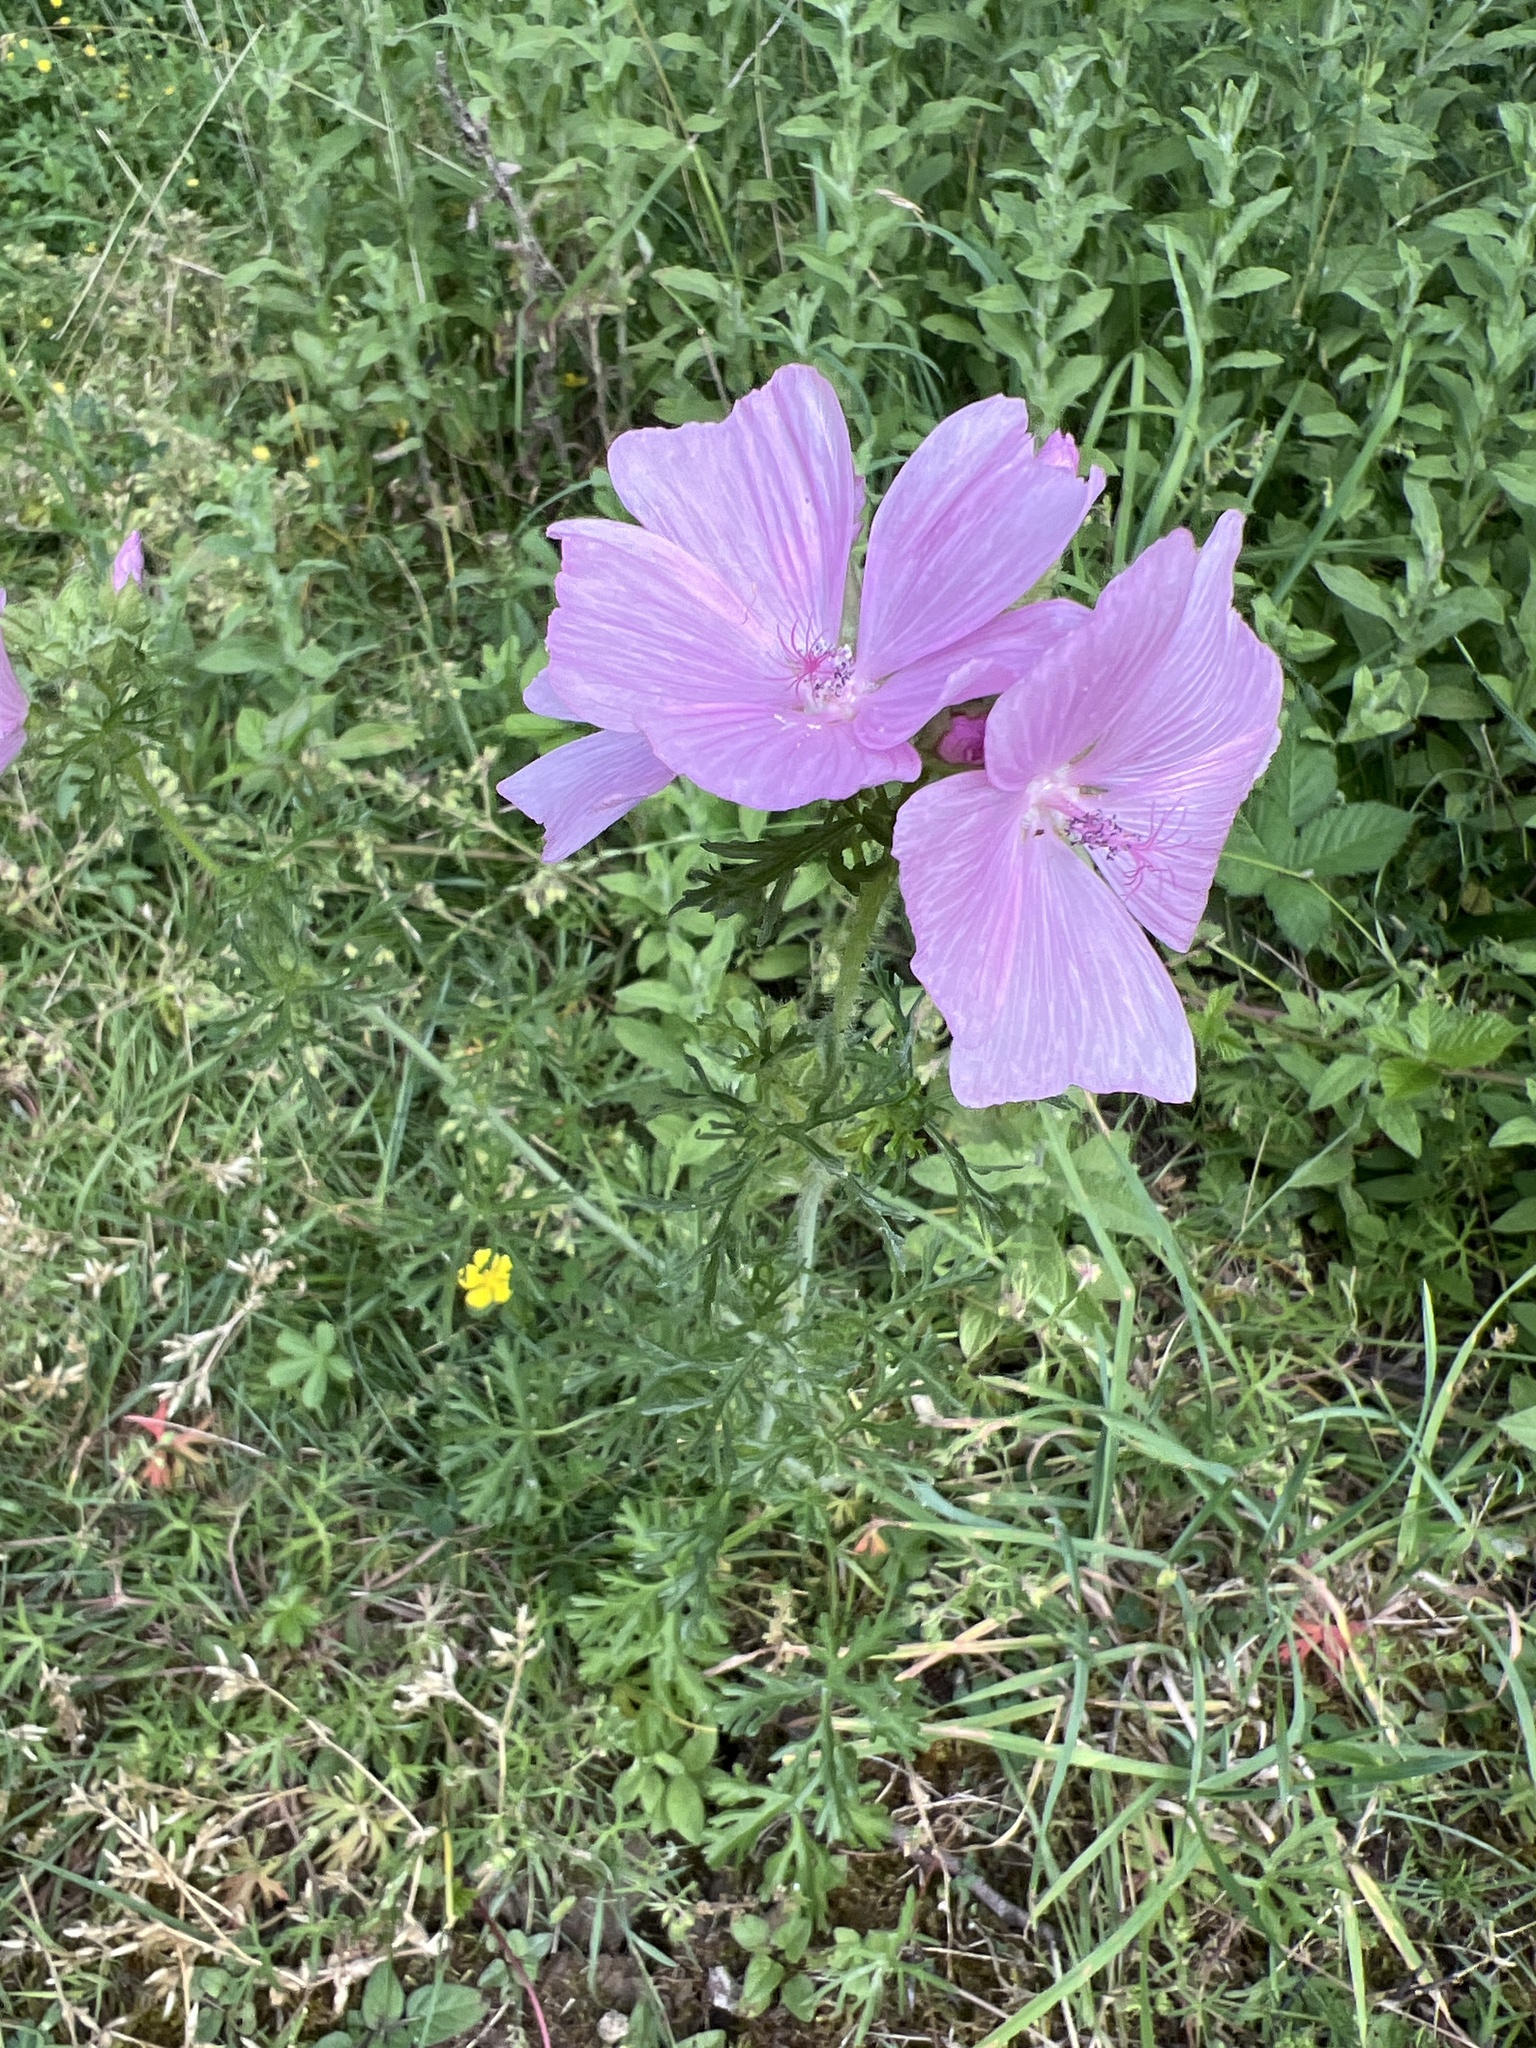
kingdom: Plantae
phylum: Tracheophyta
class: Magnoliopsida
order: Malvales
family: Malvaceae
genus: Malva
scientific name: Malva moschata
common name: Musk mallow
